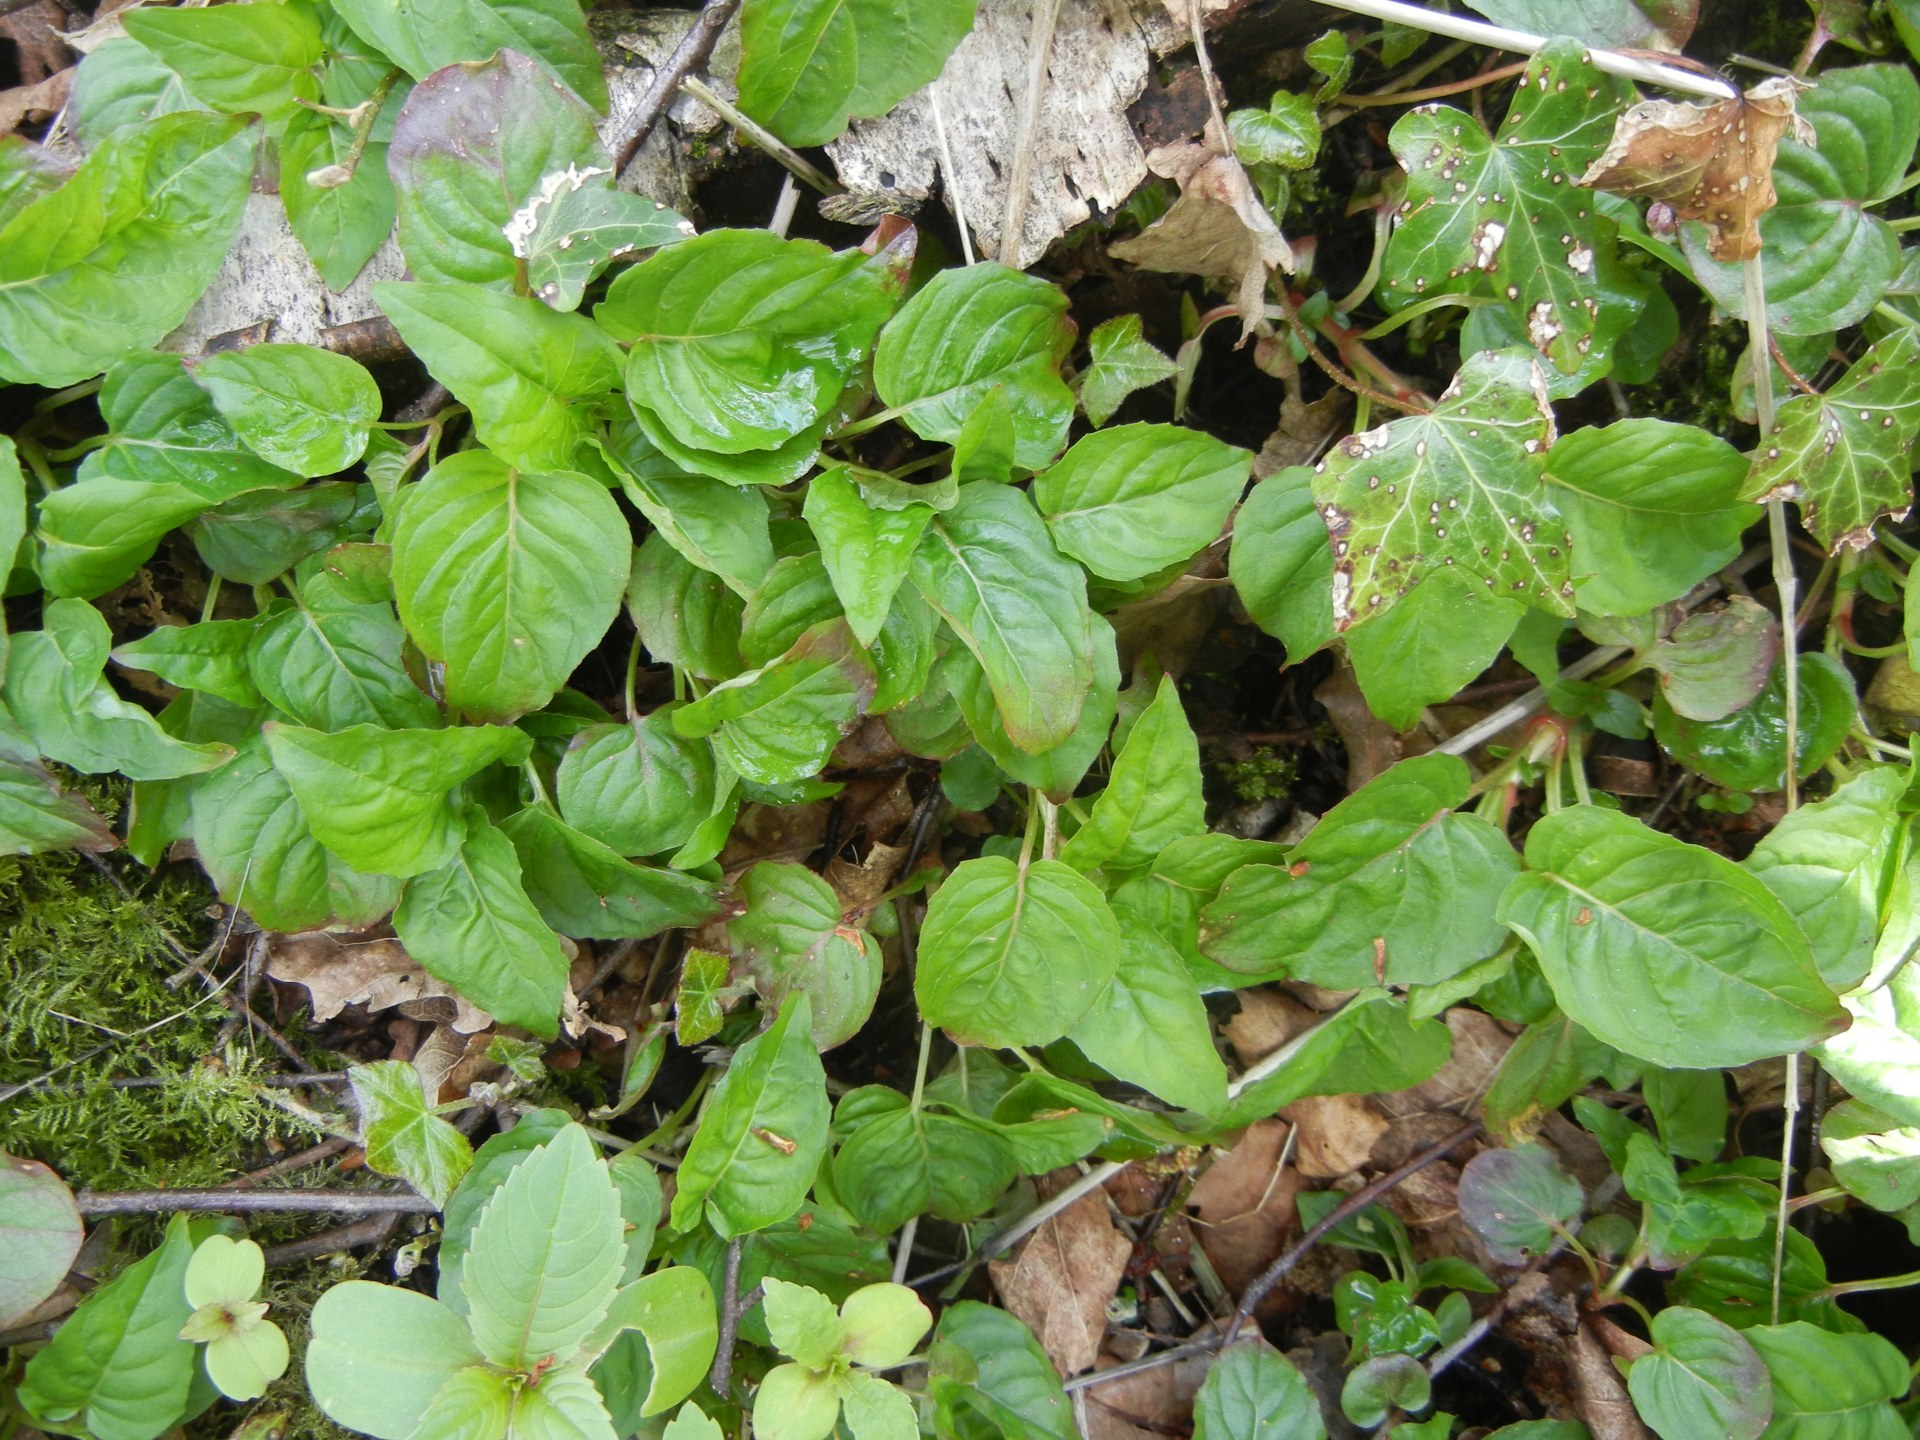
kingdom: Plantae
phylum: Tracheophyta
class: Magnoliopsida
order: Myrtales
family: Onagraceae
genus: Circaea
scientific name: Circaea lutetiana
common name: Enchanter's-nightshade
